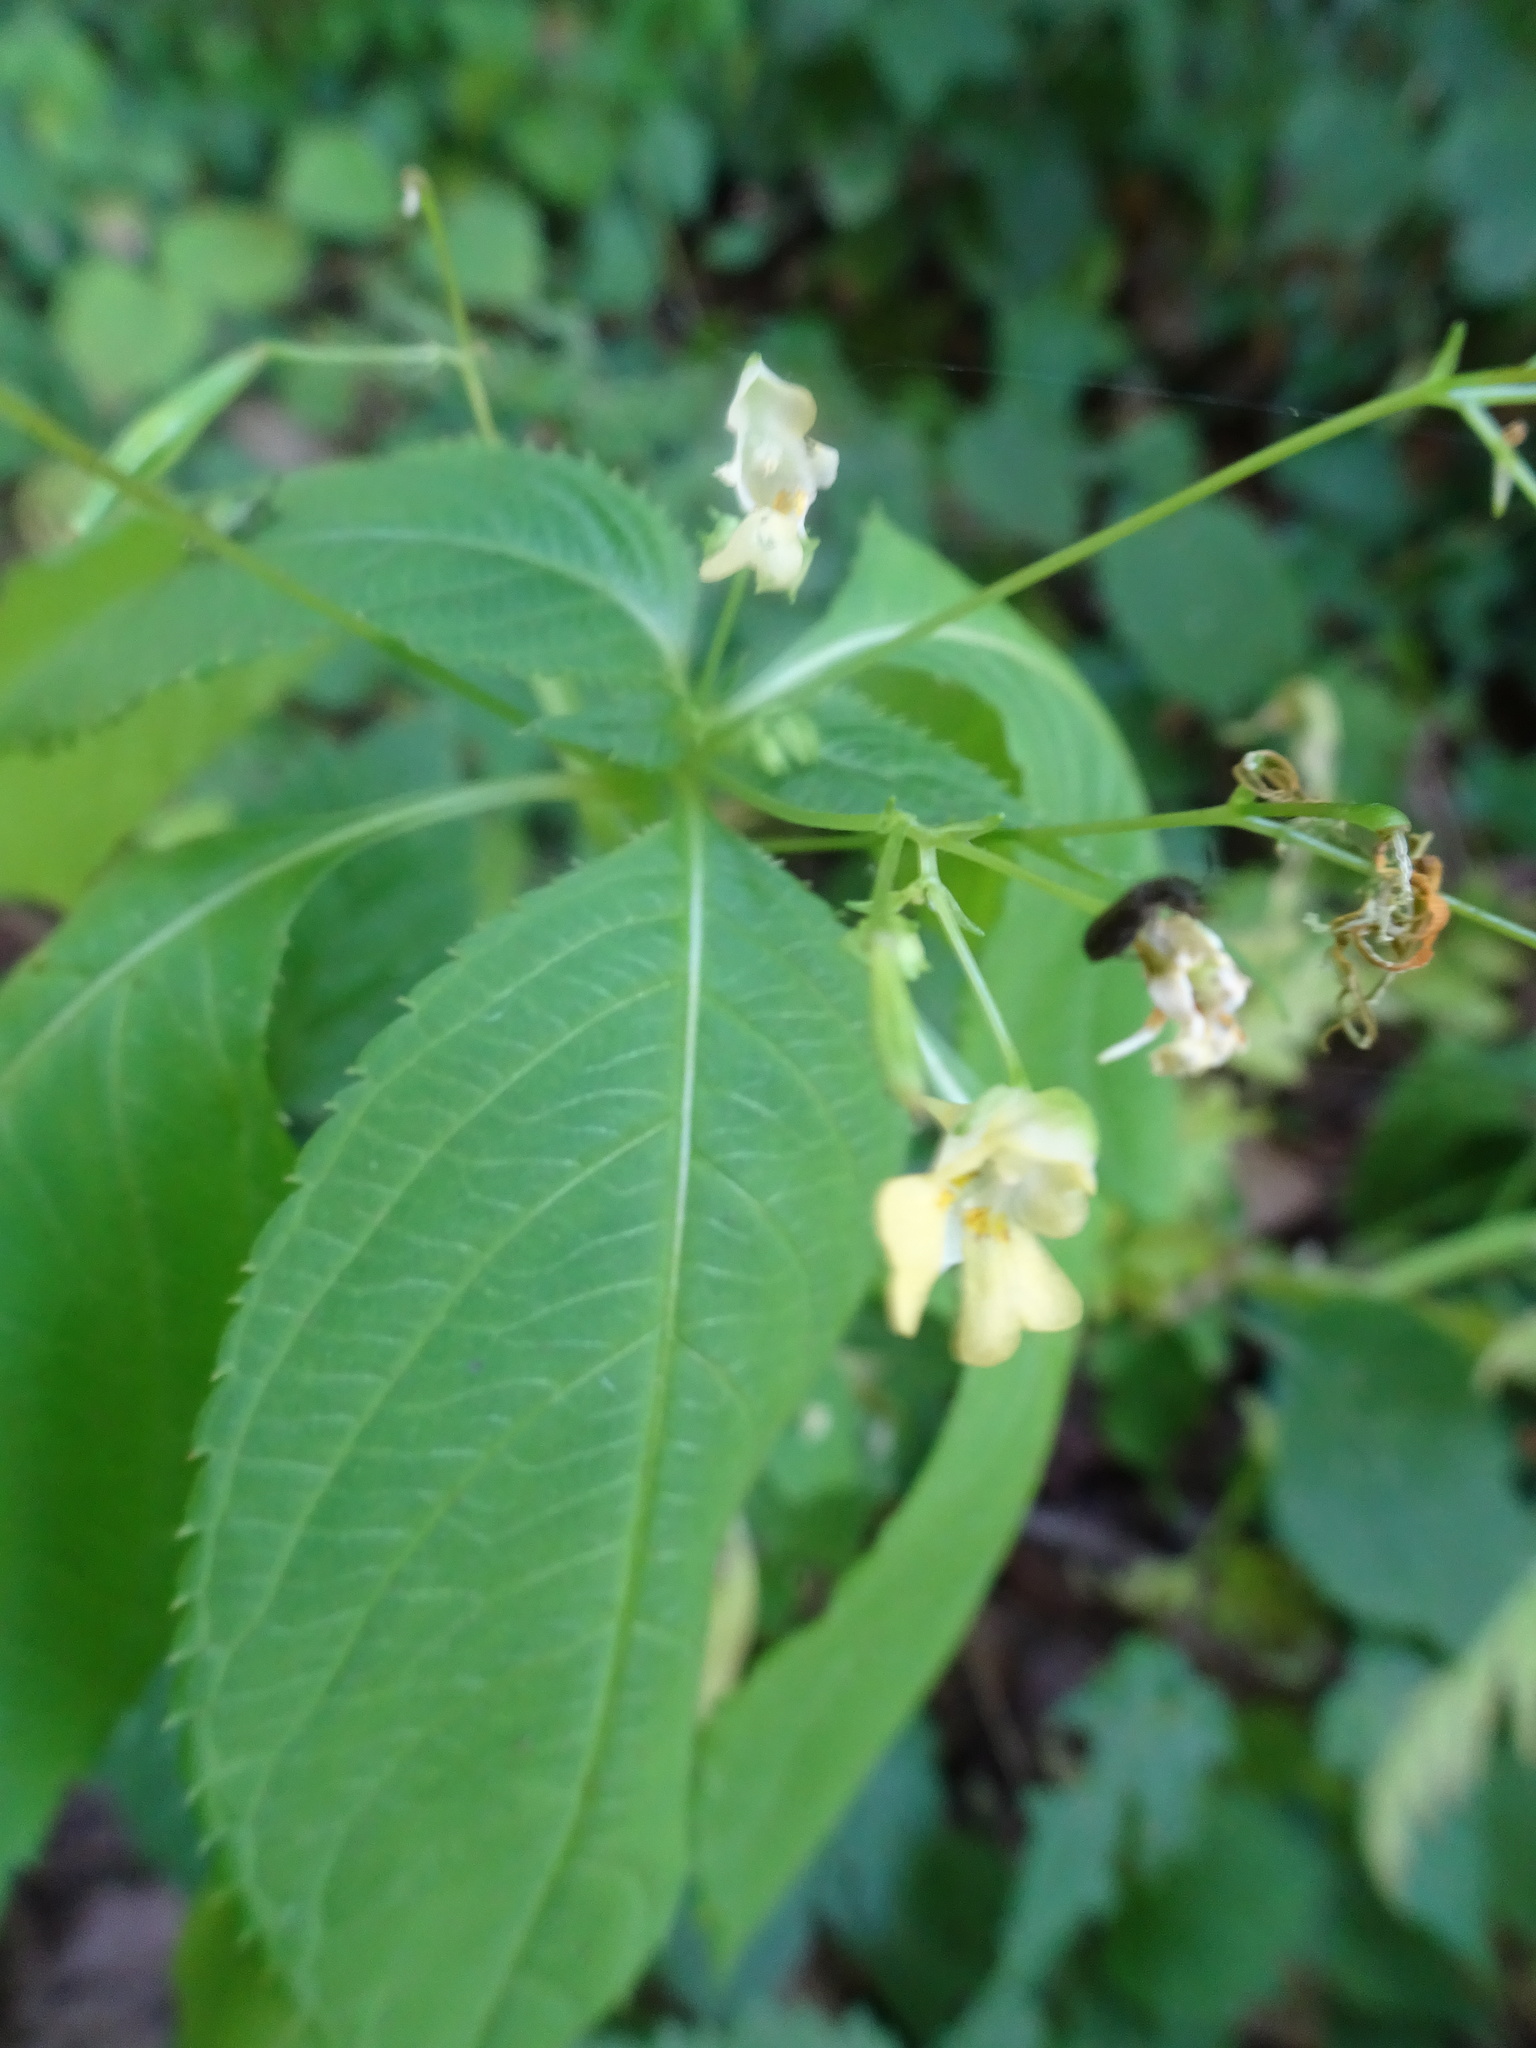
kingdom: Plantae
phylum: Tracheophyta
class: Magnoliopsida
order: Ericales
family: Balsaminaceae
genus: Impatiens
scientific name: Impatiens parviflora
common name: Small balsam
